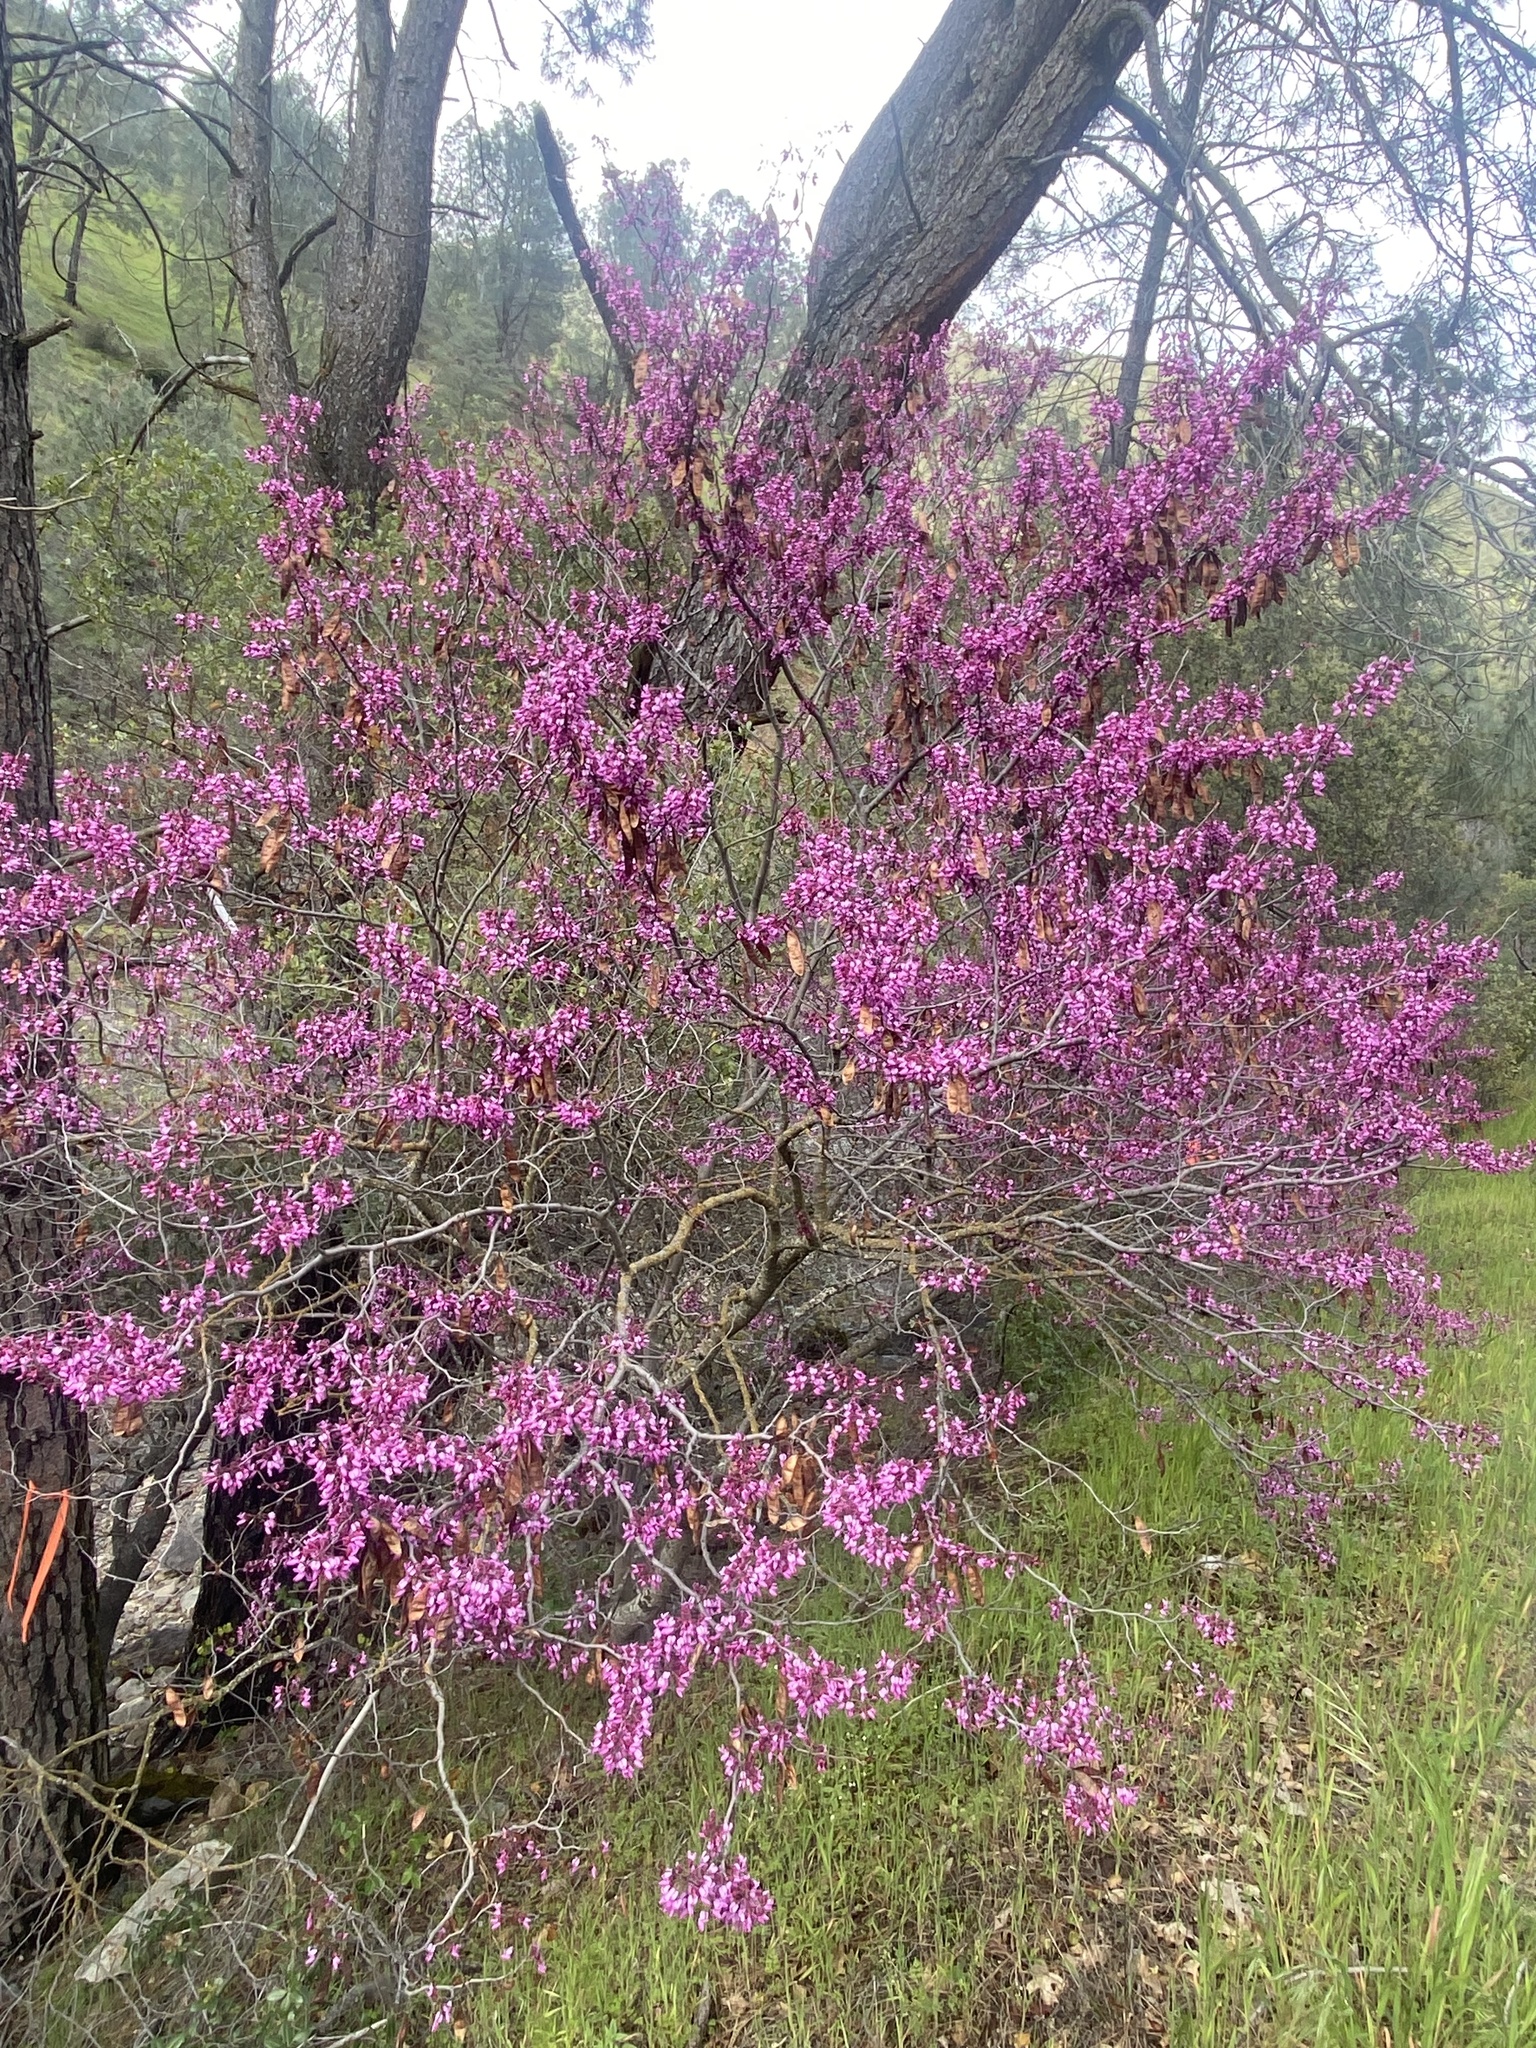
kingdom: Plantae
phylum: Tracheophyta
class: Magnoliopsida
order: Fabales
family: Fabaceae
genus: Cercis
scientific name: Cercis occidentalis
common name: California redbud
